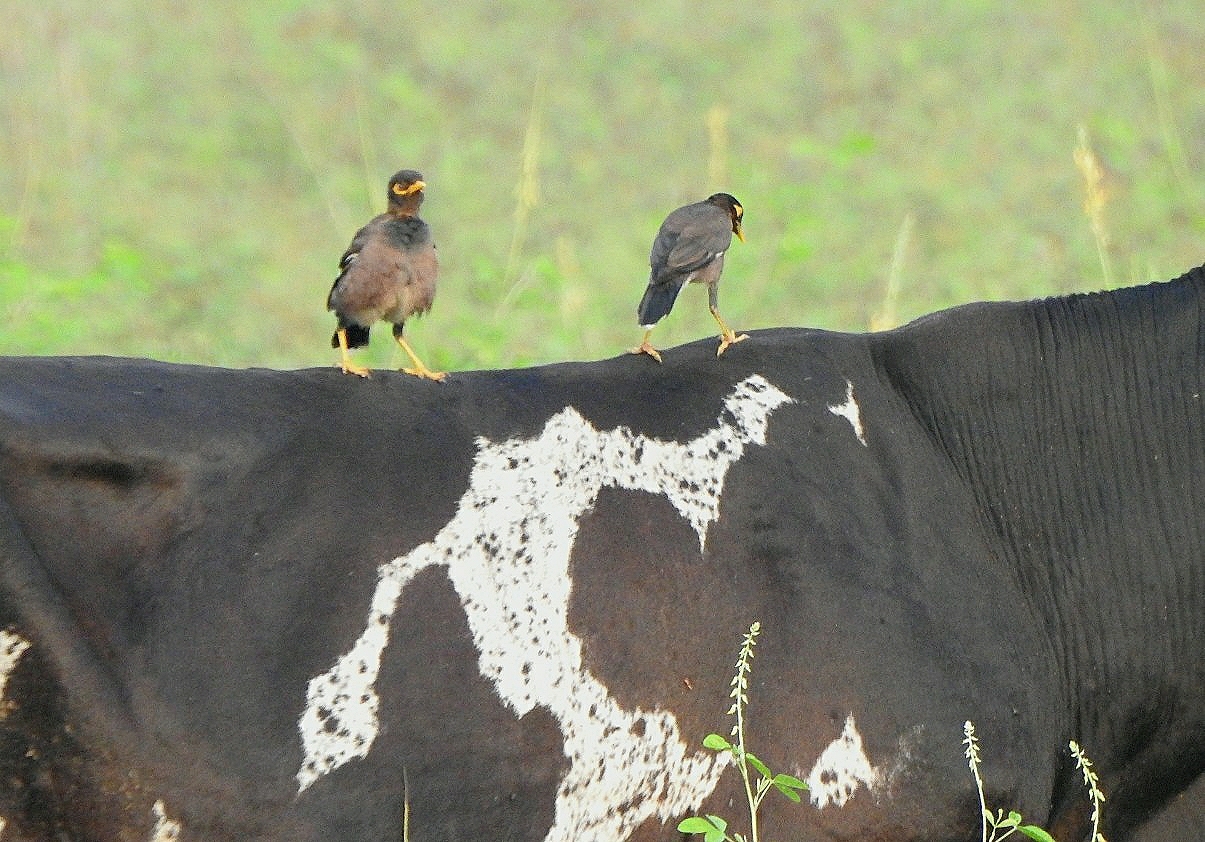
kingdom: Animalia
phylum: Chordata
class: Aves
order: Passeriformes
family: Sturnidae
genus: Acridotheres
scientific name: Acridotheres tristis
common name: Common myna
